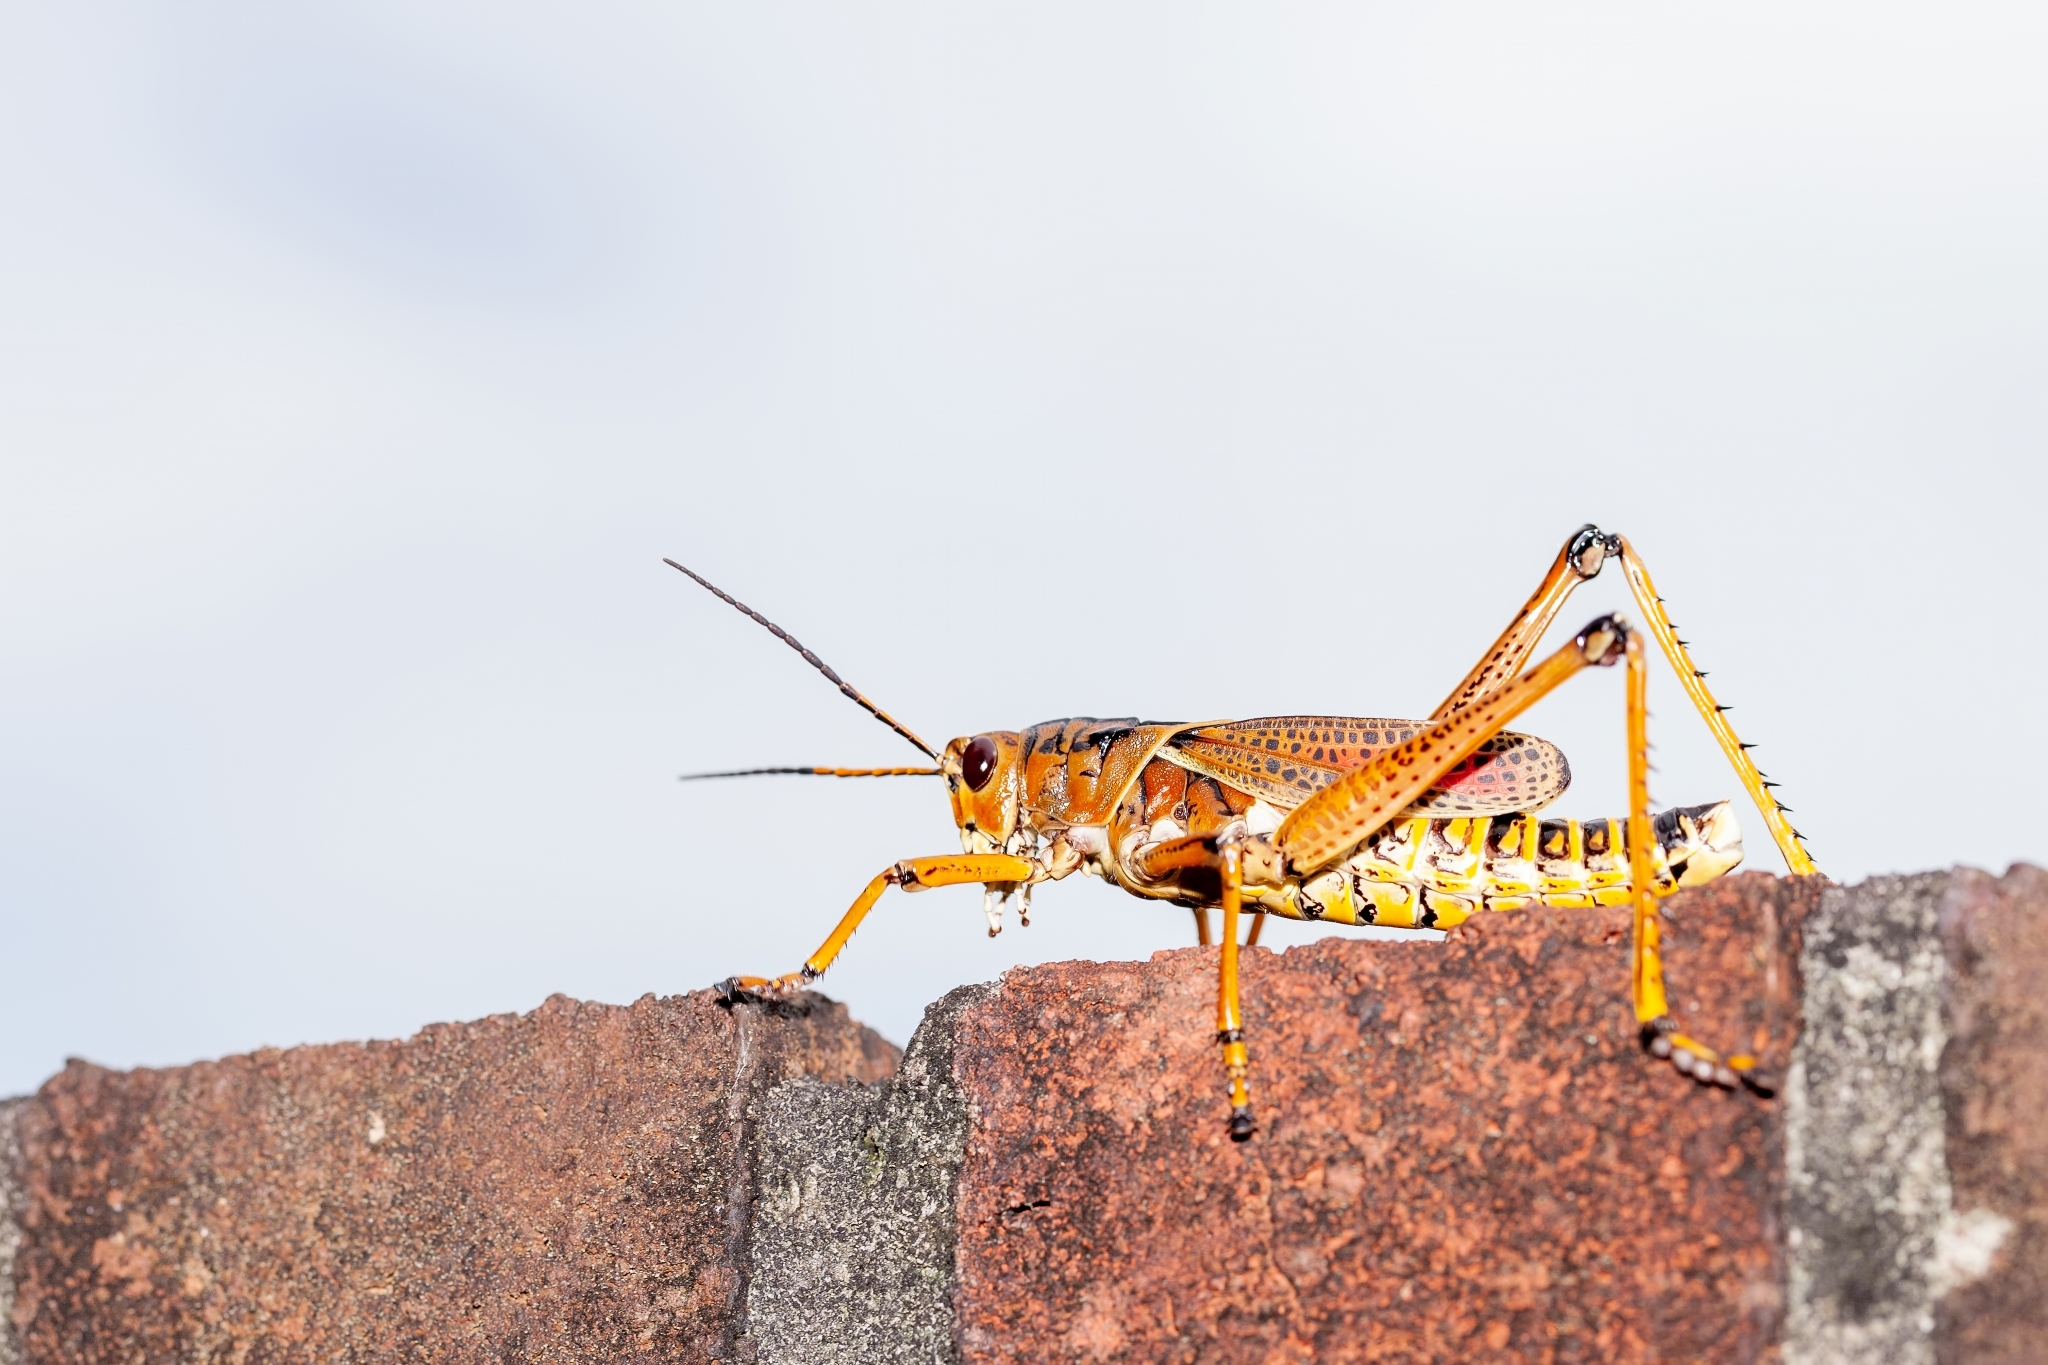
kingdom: Animalia
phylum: Arthropoda
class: Insecta
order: Orthoptera
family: Romaleidae
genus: Romalea
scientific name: Romalea microptera
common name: Eastern lubber grasshopper
